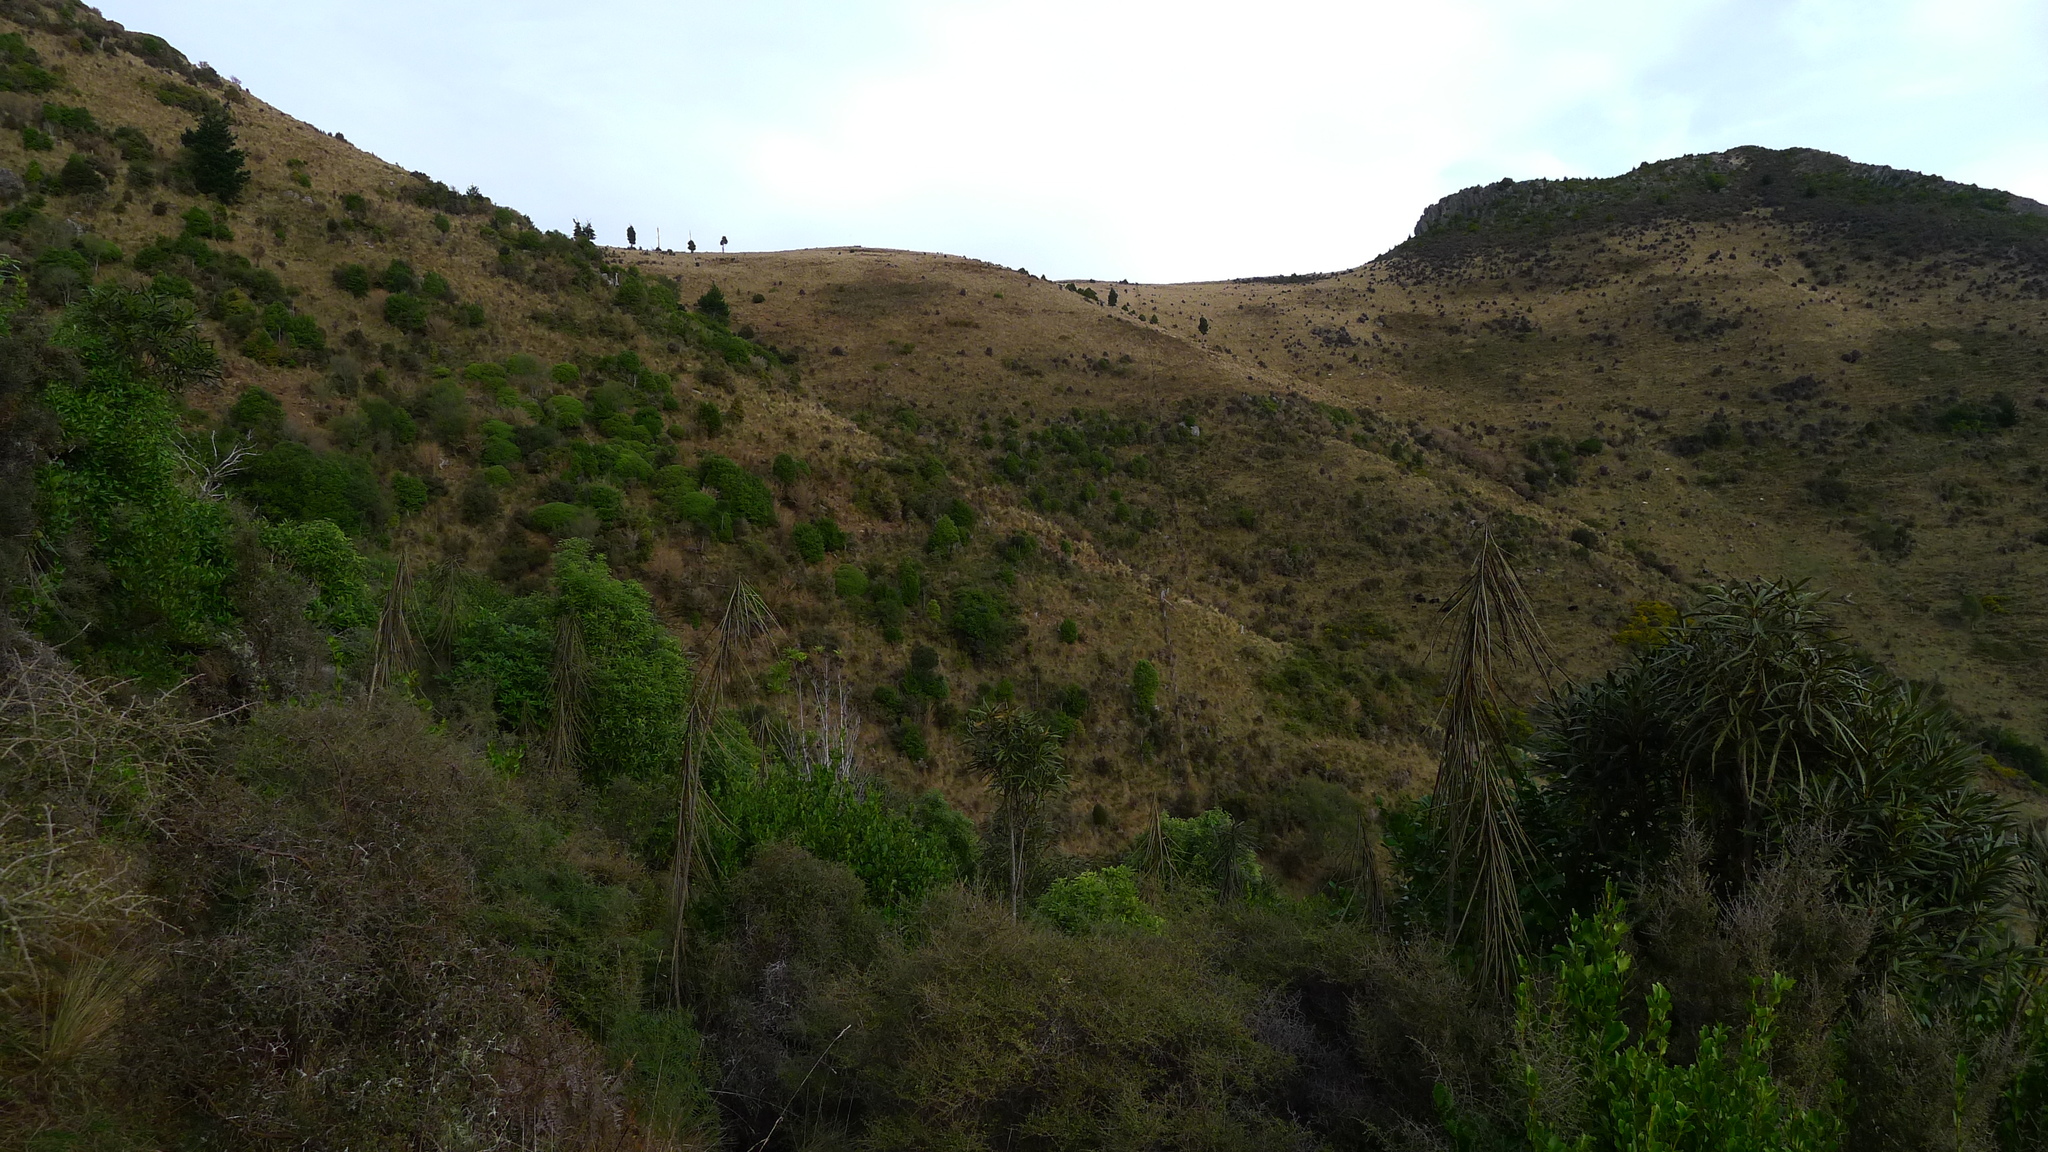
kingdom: Plantae
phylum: Tracheophyta
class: Magnoliopsida
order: Apiales
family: Araliaceae
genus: Pseudopanax
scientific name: Pseudopanax crassifolius
